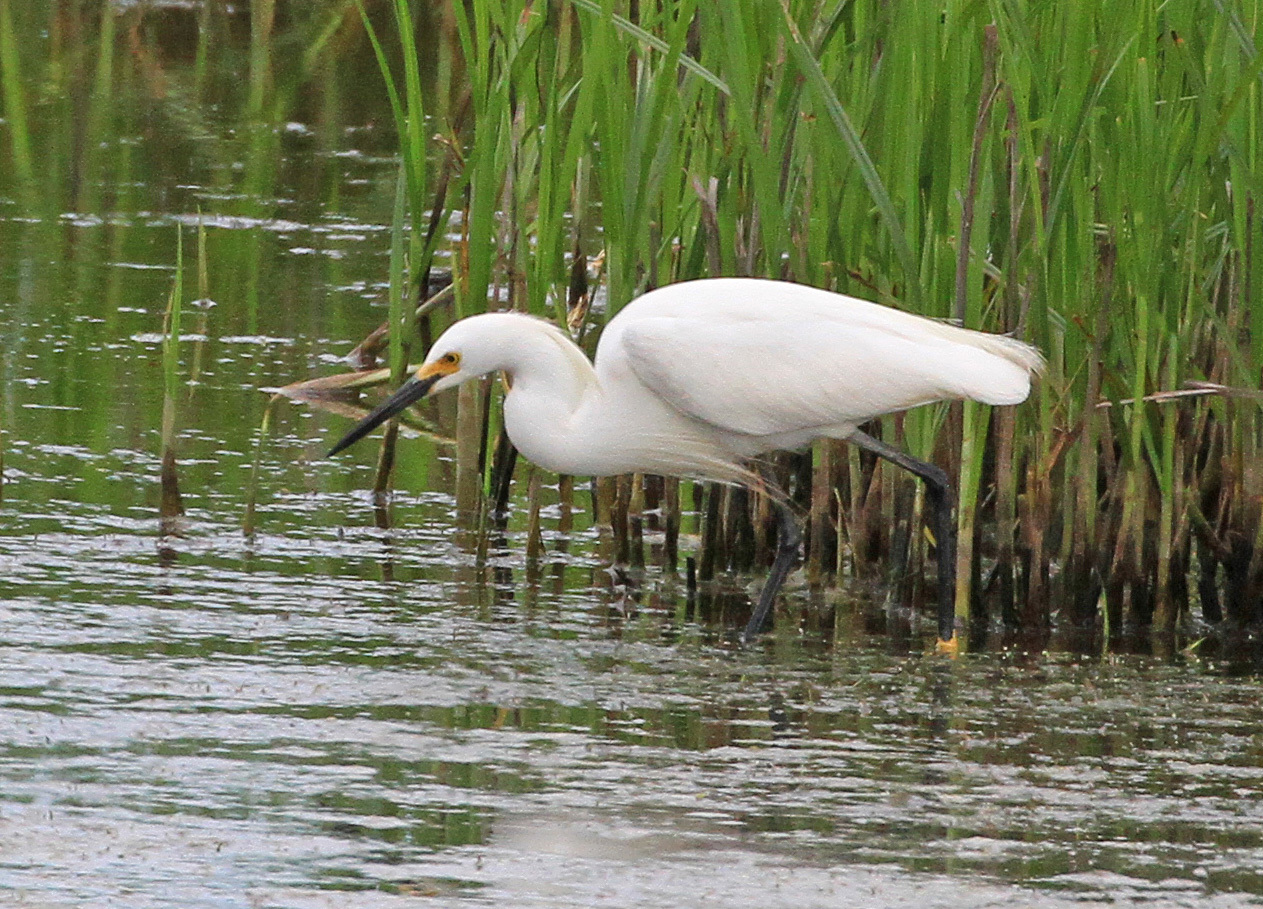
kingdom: Animalia
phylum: Chordata
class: Aves
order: Pelecaniformes
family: Ardeidae
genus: Egretta
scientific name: Egretta thula
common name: Snowy egret
